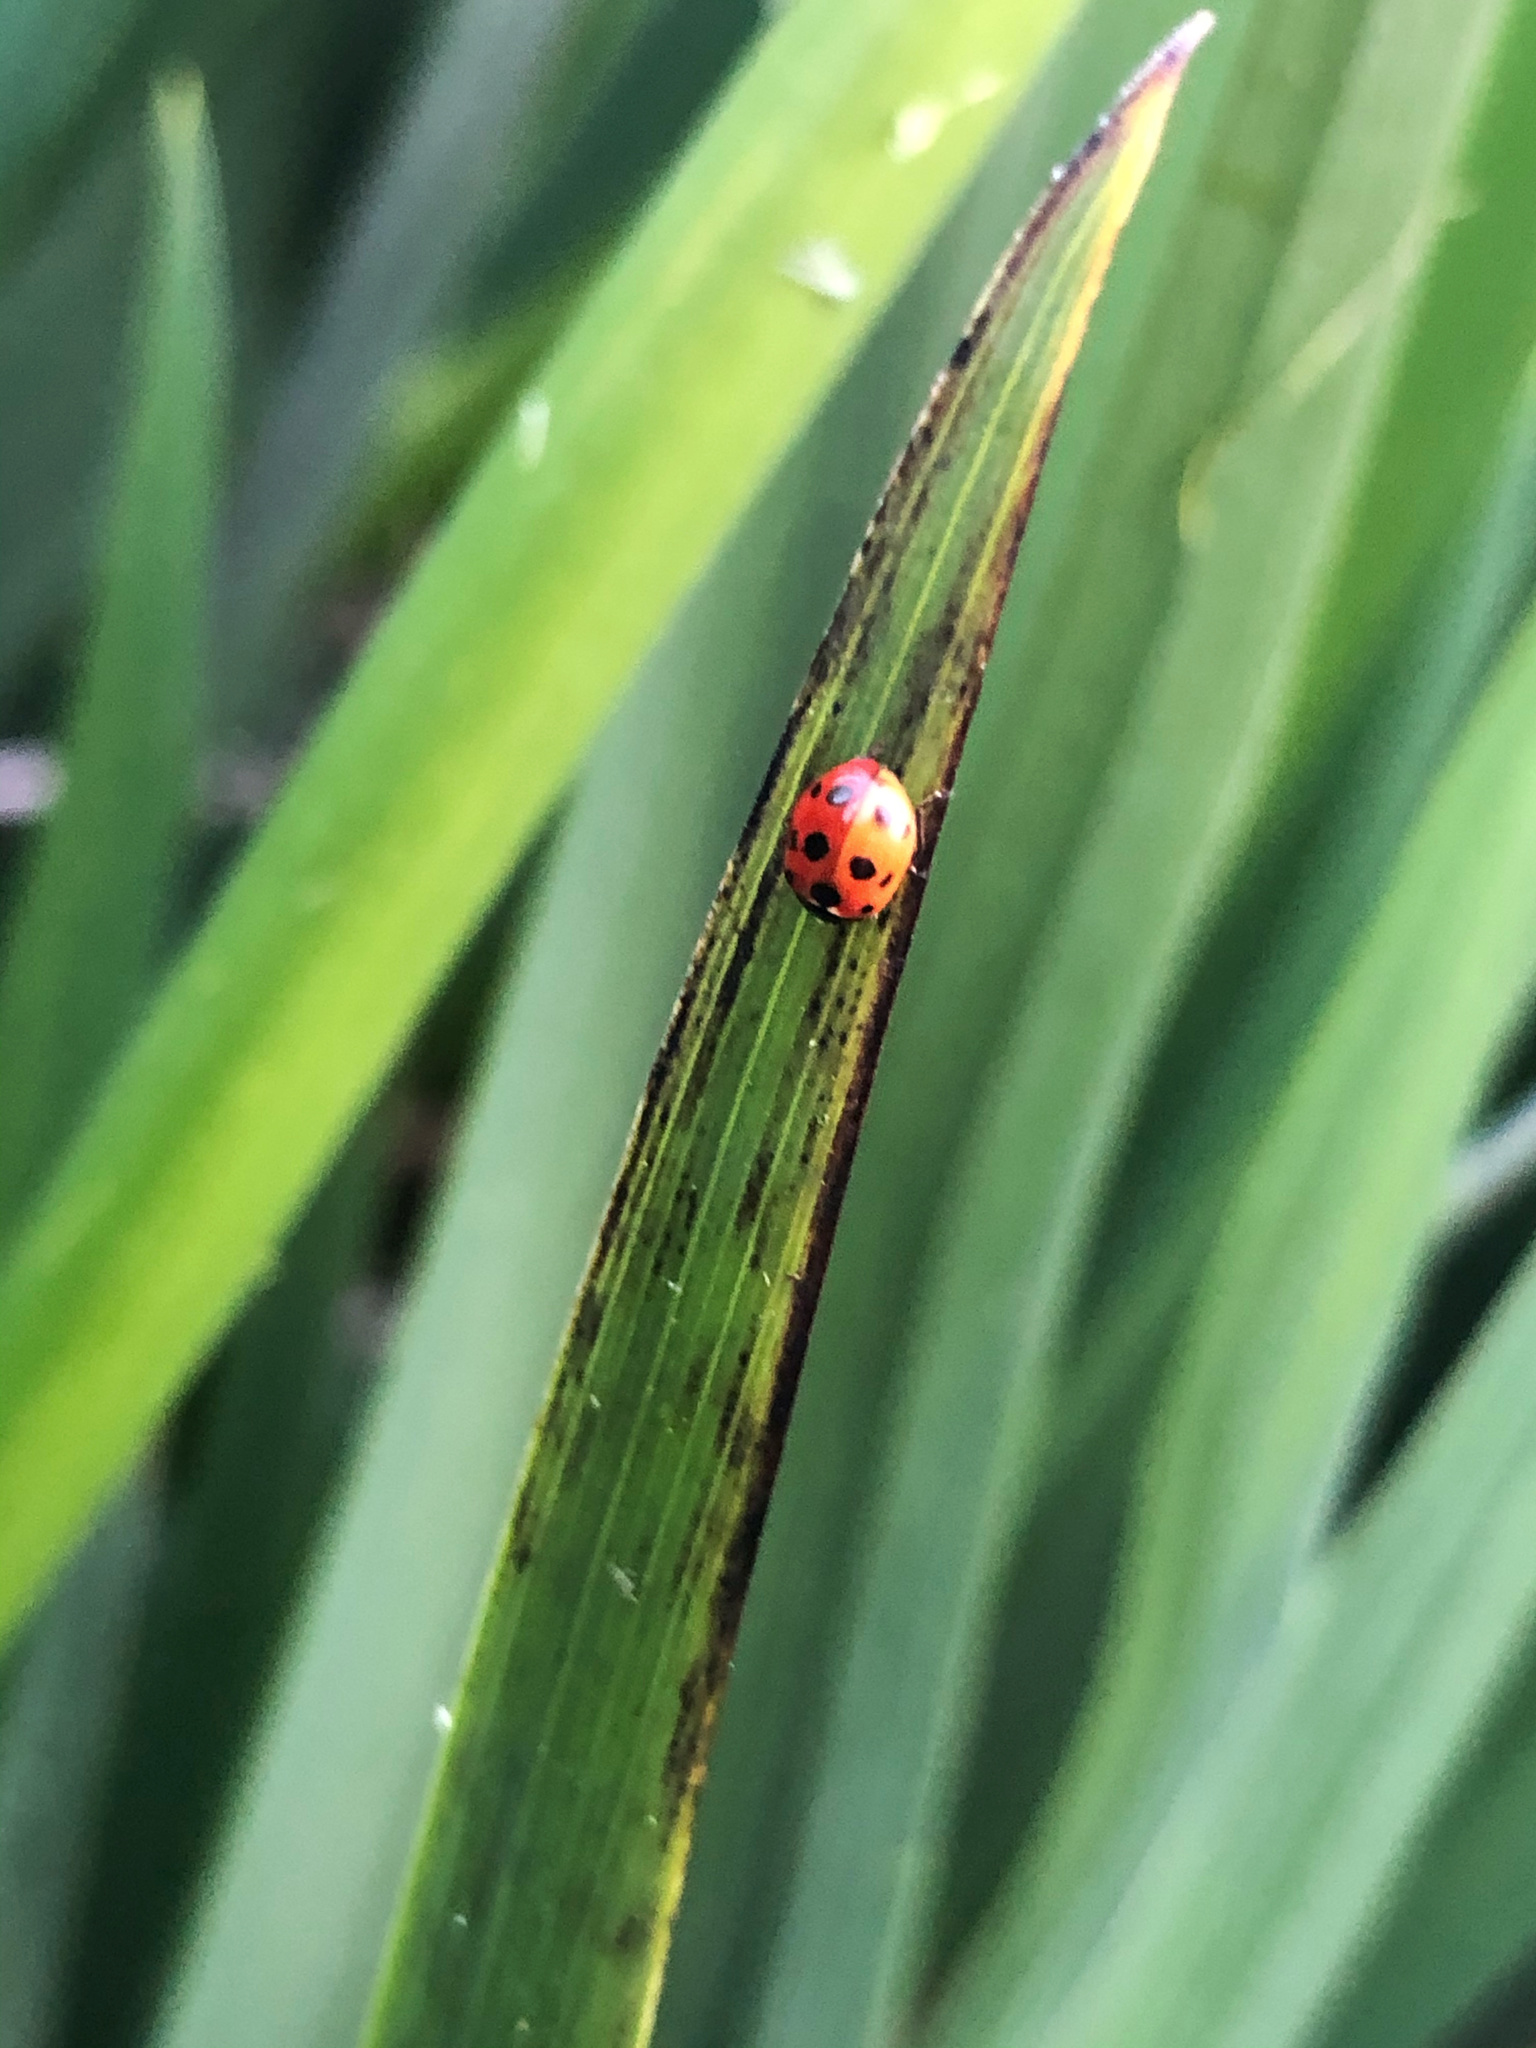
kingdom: Animalia
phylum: Arthropoda
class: Insecta
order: Coleoptera
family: Coccinellidae
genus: Coccinella
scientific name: Coccinella undecimpunctata
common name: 11-spot ladybird
